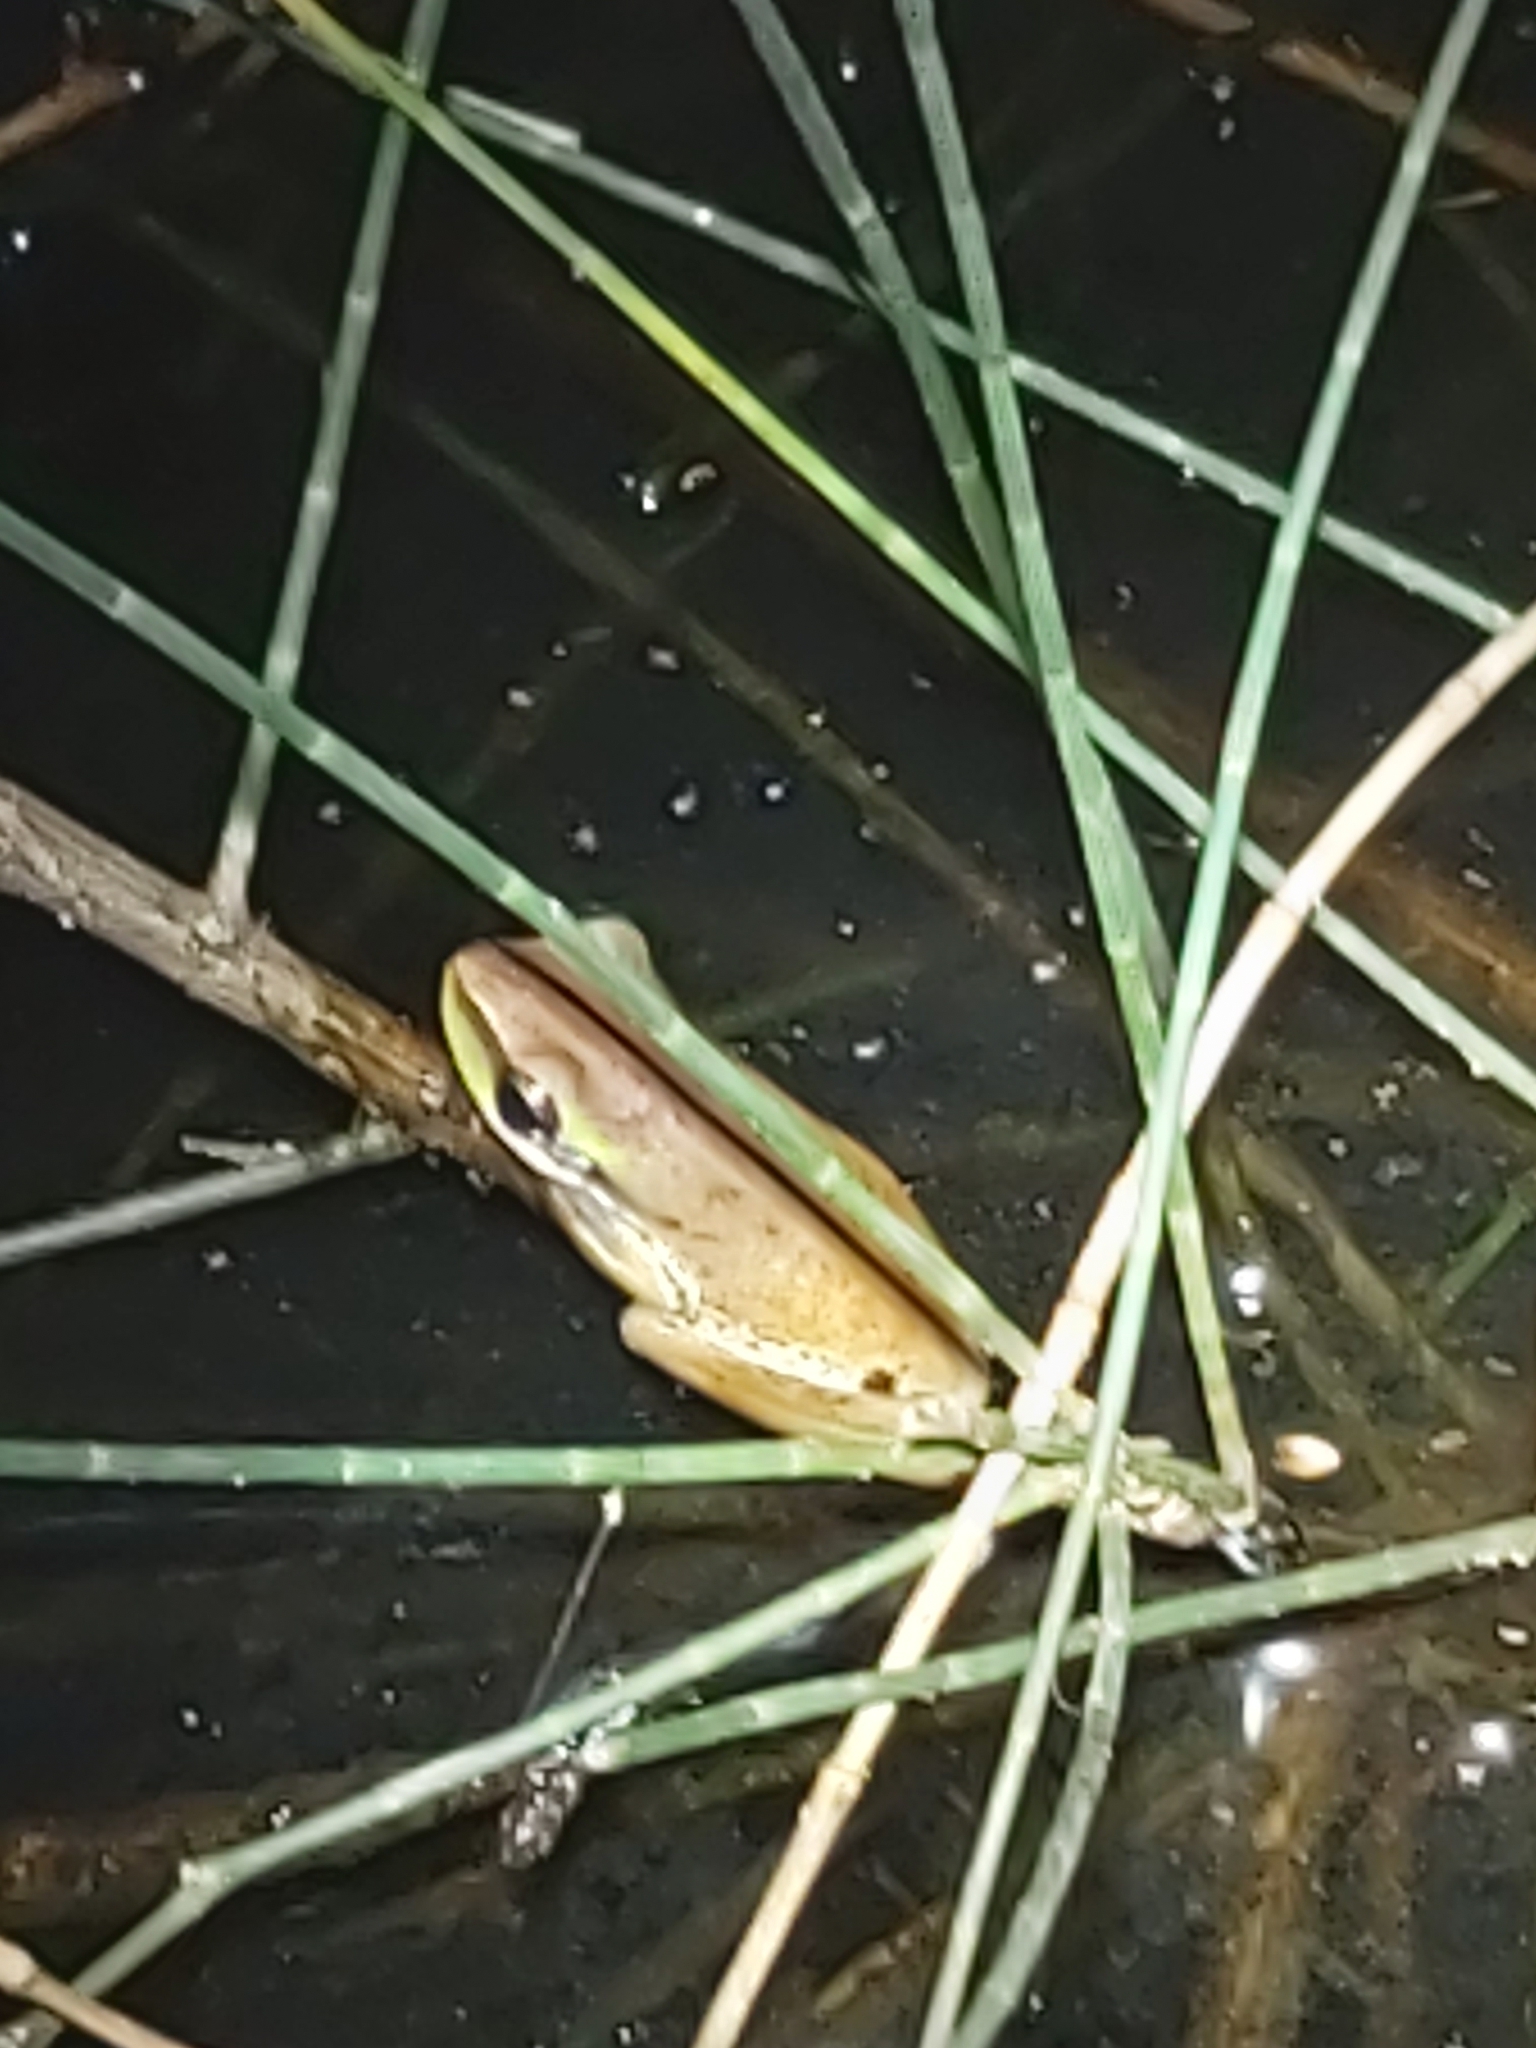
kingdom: Animalia
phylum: Chordata
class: Amphibia
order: Anura
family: Pelodryadidae
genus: Litoria
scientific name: Litoria fallax
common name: Eastern dwarf treefrog
